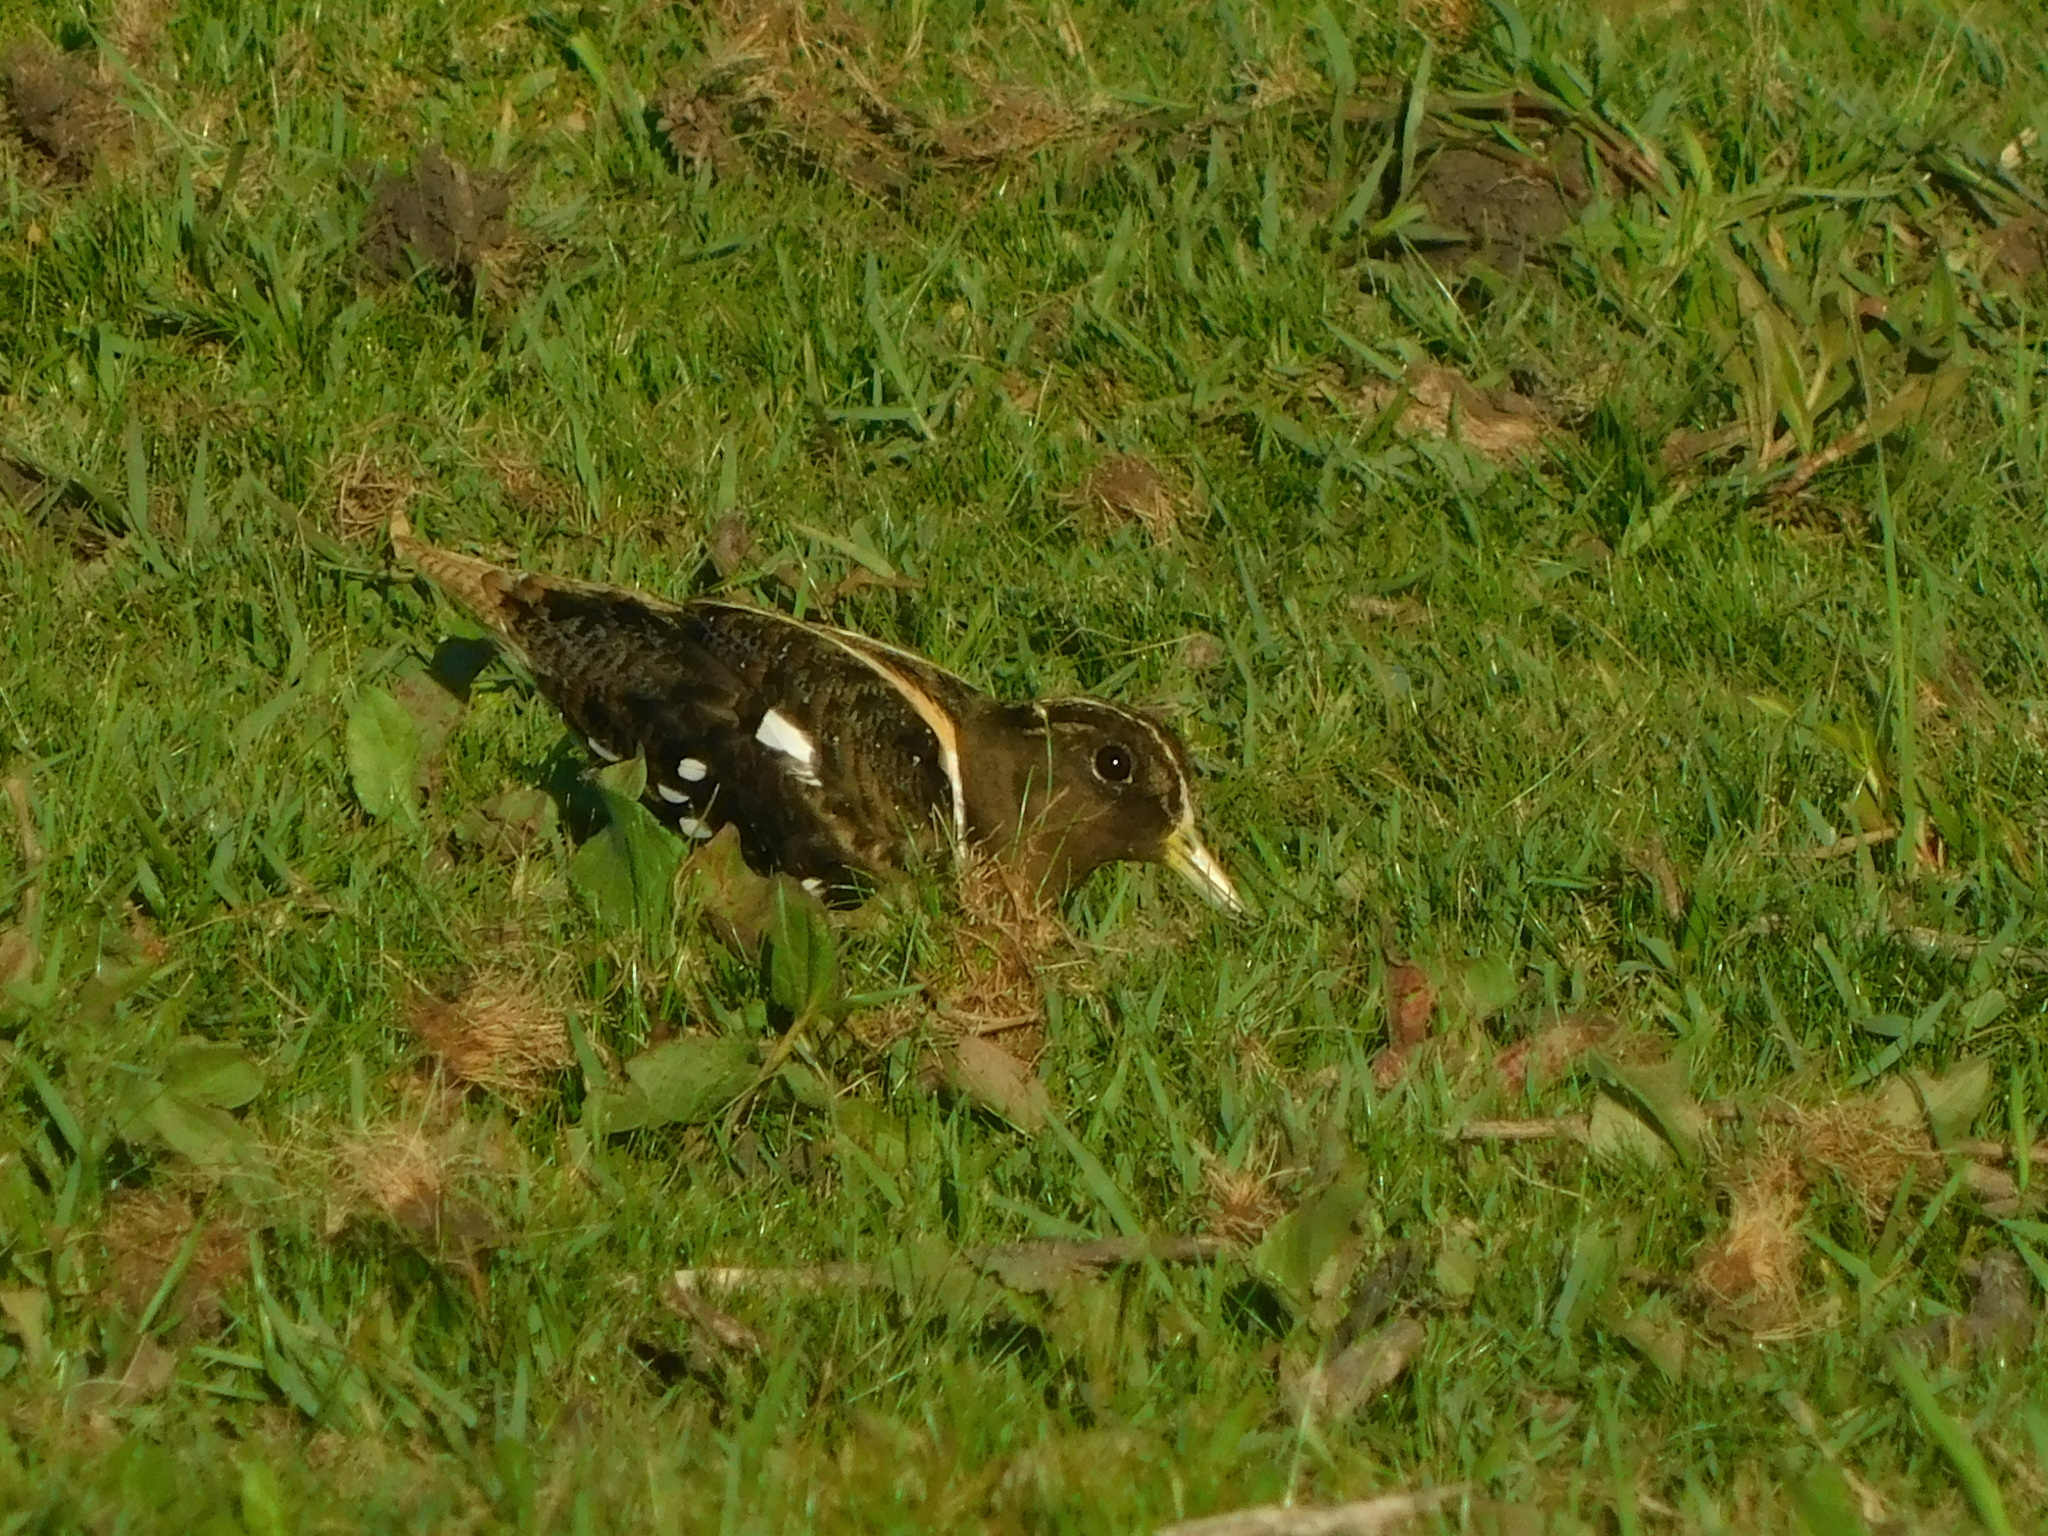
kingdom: Animalia
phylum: Chordata
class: Aves
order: Charadriiformes
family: Rostratulidae
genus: Nycticryphes
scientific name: Nycticryphes semicollaris
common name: South american painted-snipe
